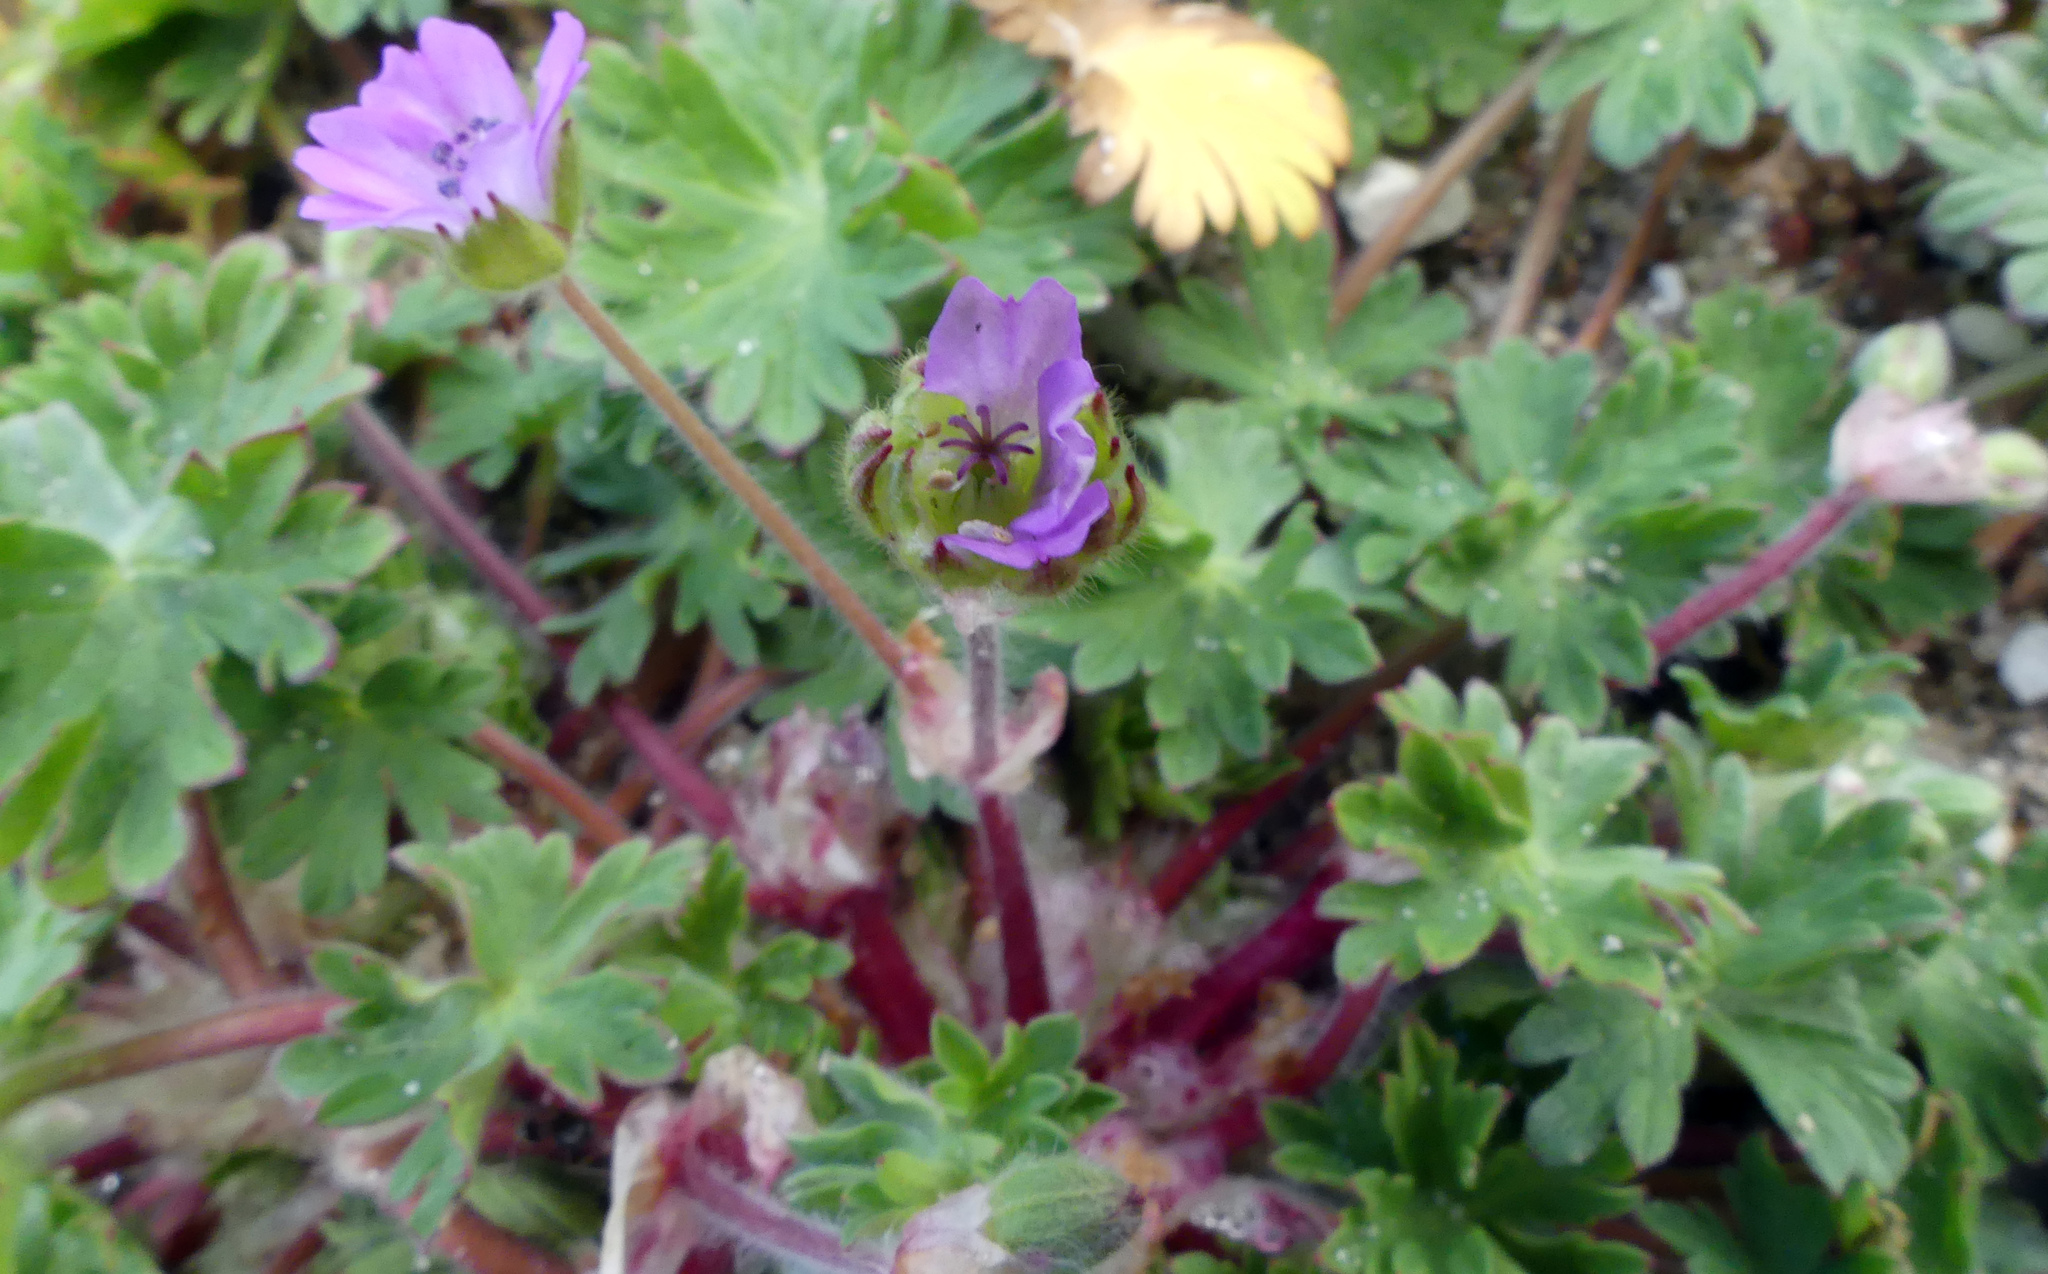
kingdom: Plantae
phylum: Tracheophyta
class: Magnoliopsida
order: Geraniales
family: Geraniaceae
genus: Geranium
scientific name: Geranium molle
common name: Dove's-foot crane's-bill
